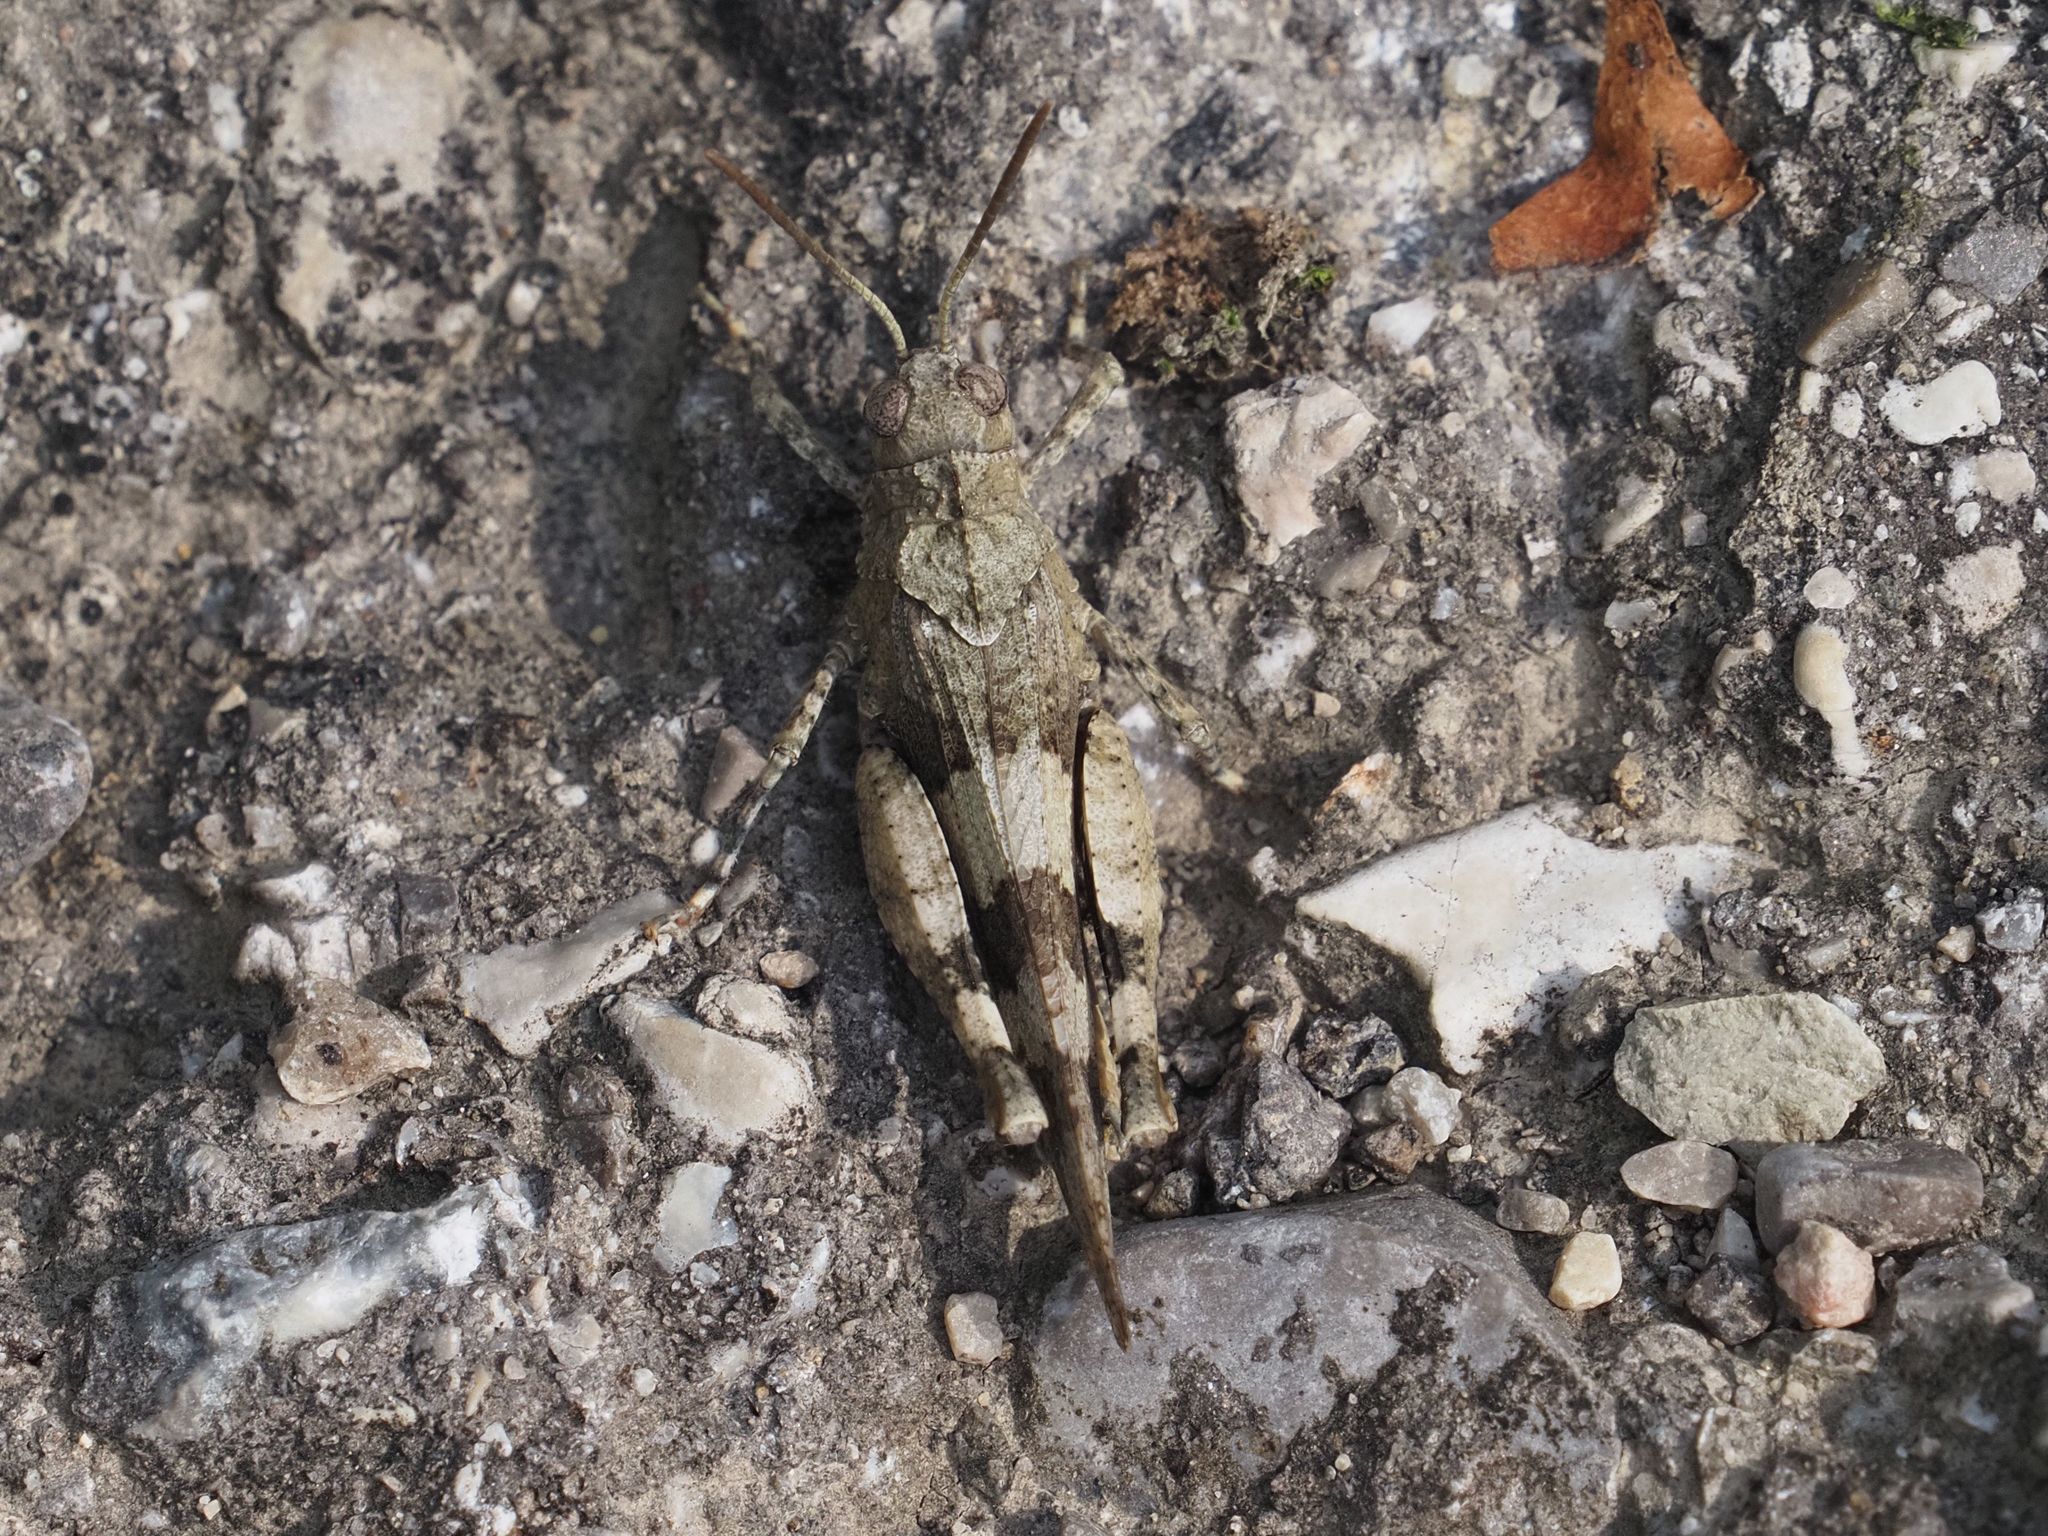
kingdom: Animalia
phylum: Arthropoda
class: Insecta
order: Orthoptera
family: Acrididae
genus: Oedipoda
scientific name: Oedipoda caerulescens
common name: Blue-winged grasshopper
